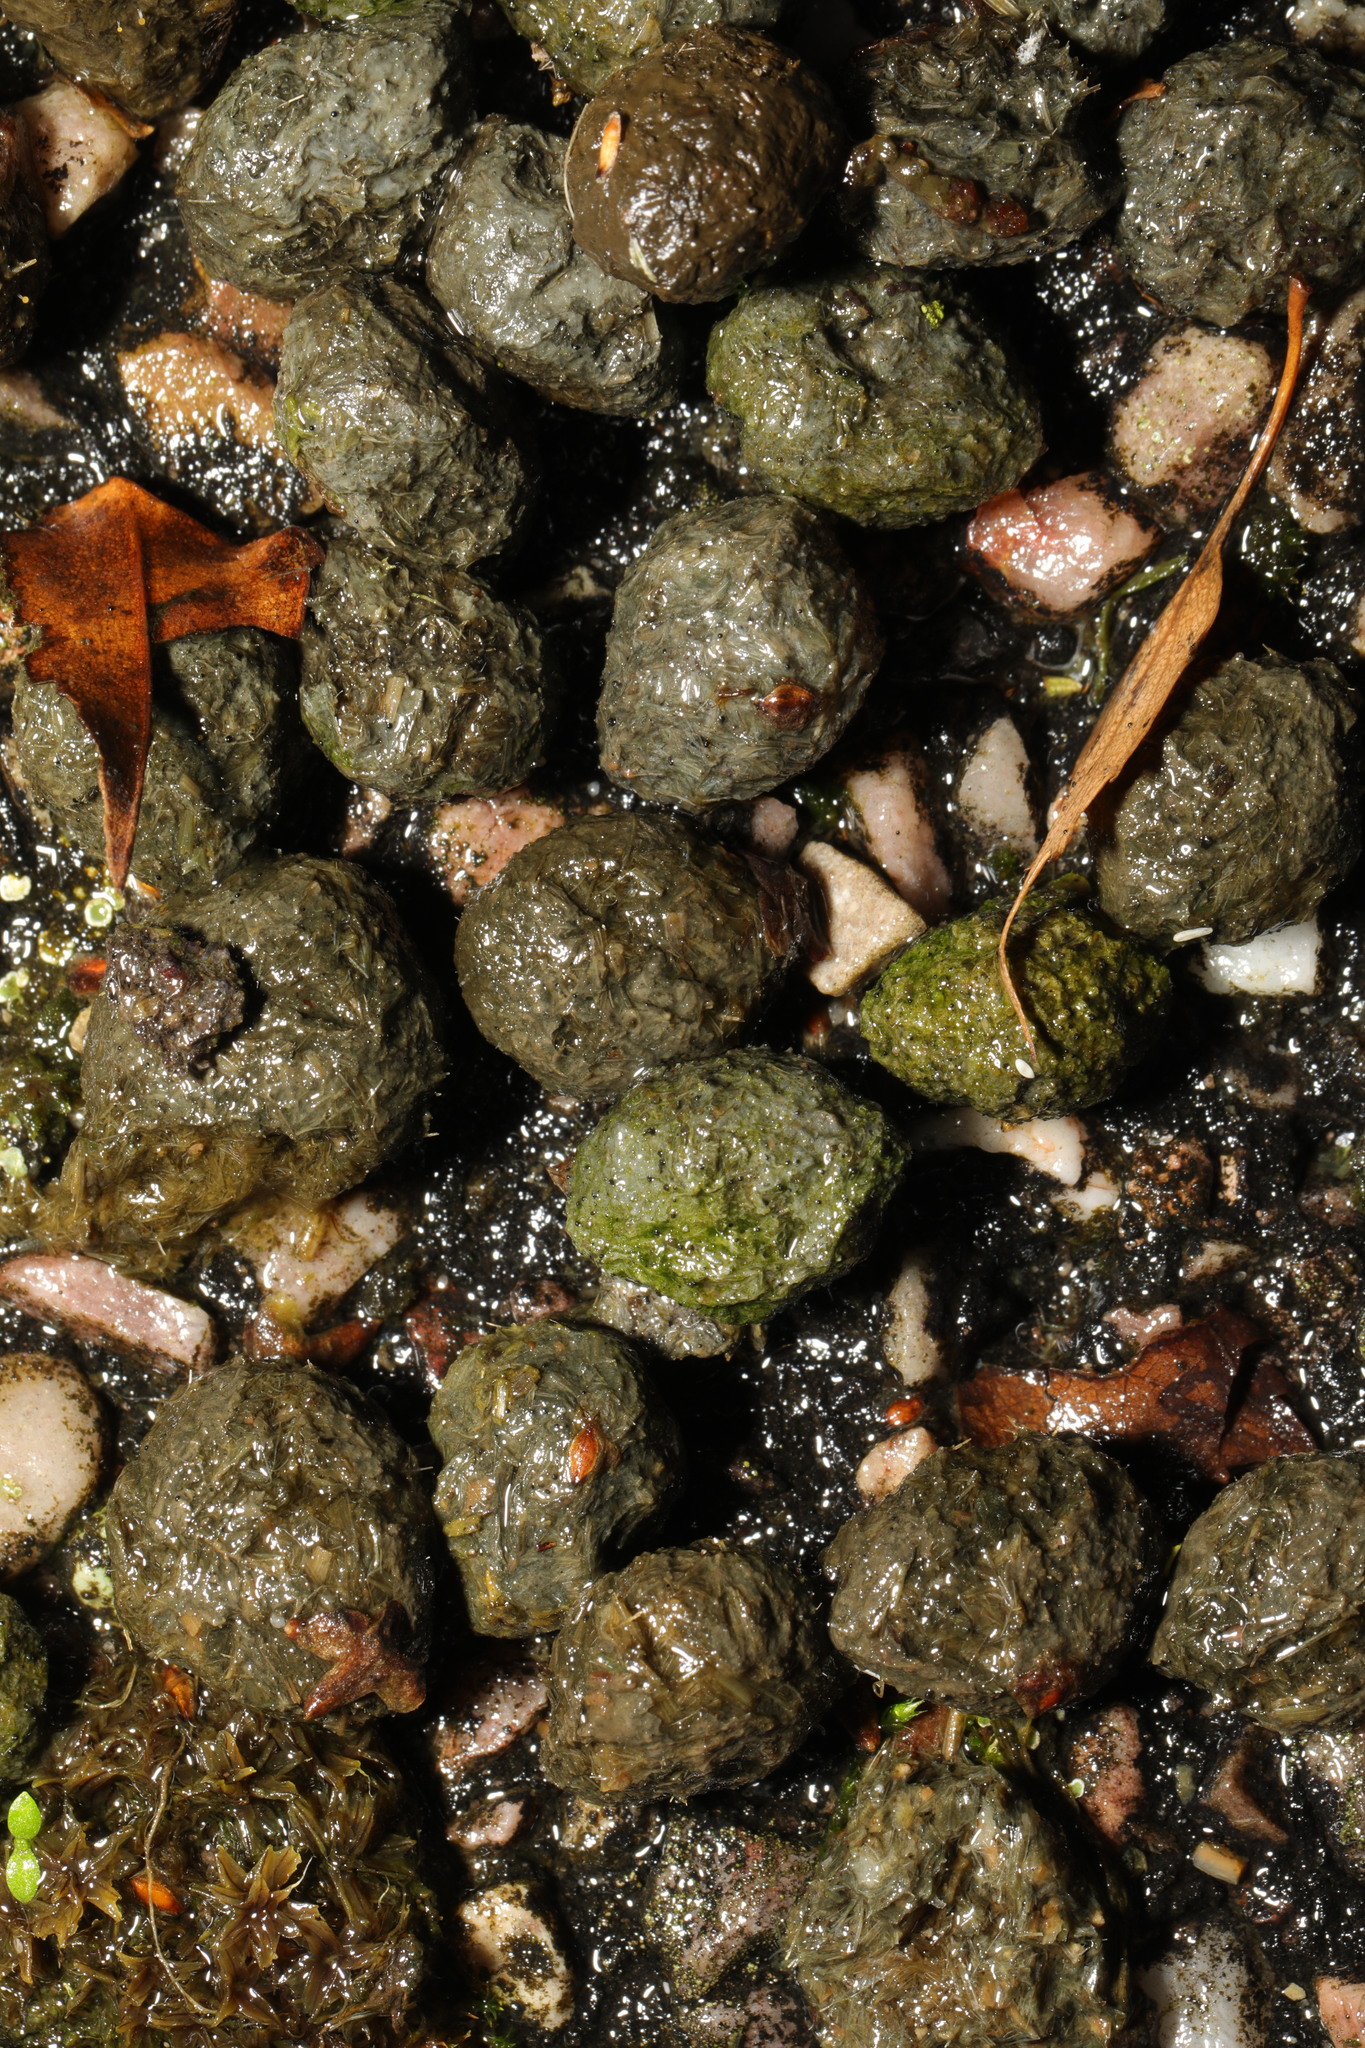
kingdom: Animalia
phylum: Chordata
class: Mammalia
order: Lagomorpha
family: Leporidae
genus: Oryctolagus
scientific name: Oryctolagus cuniculus
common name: European rabbit
